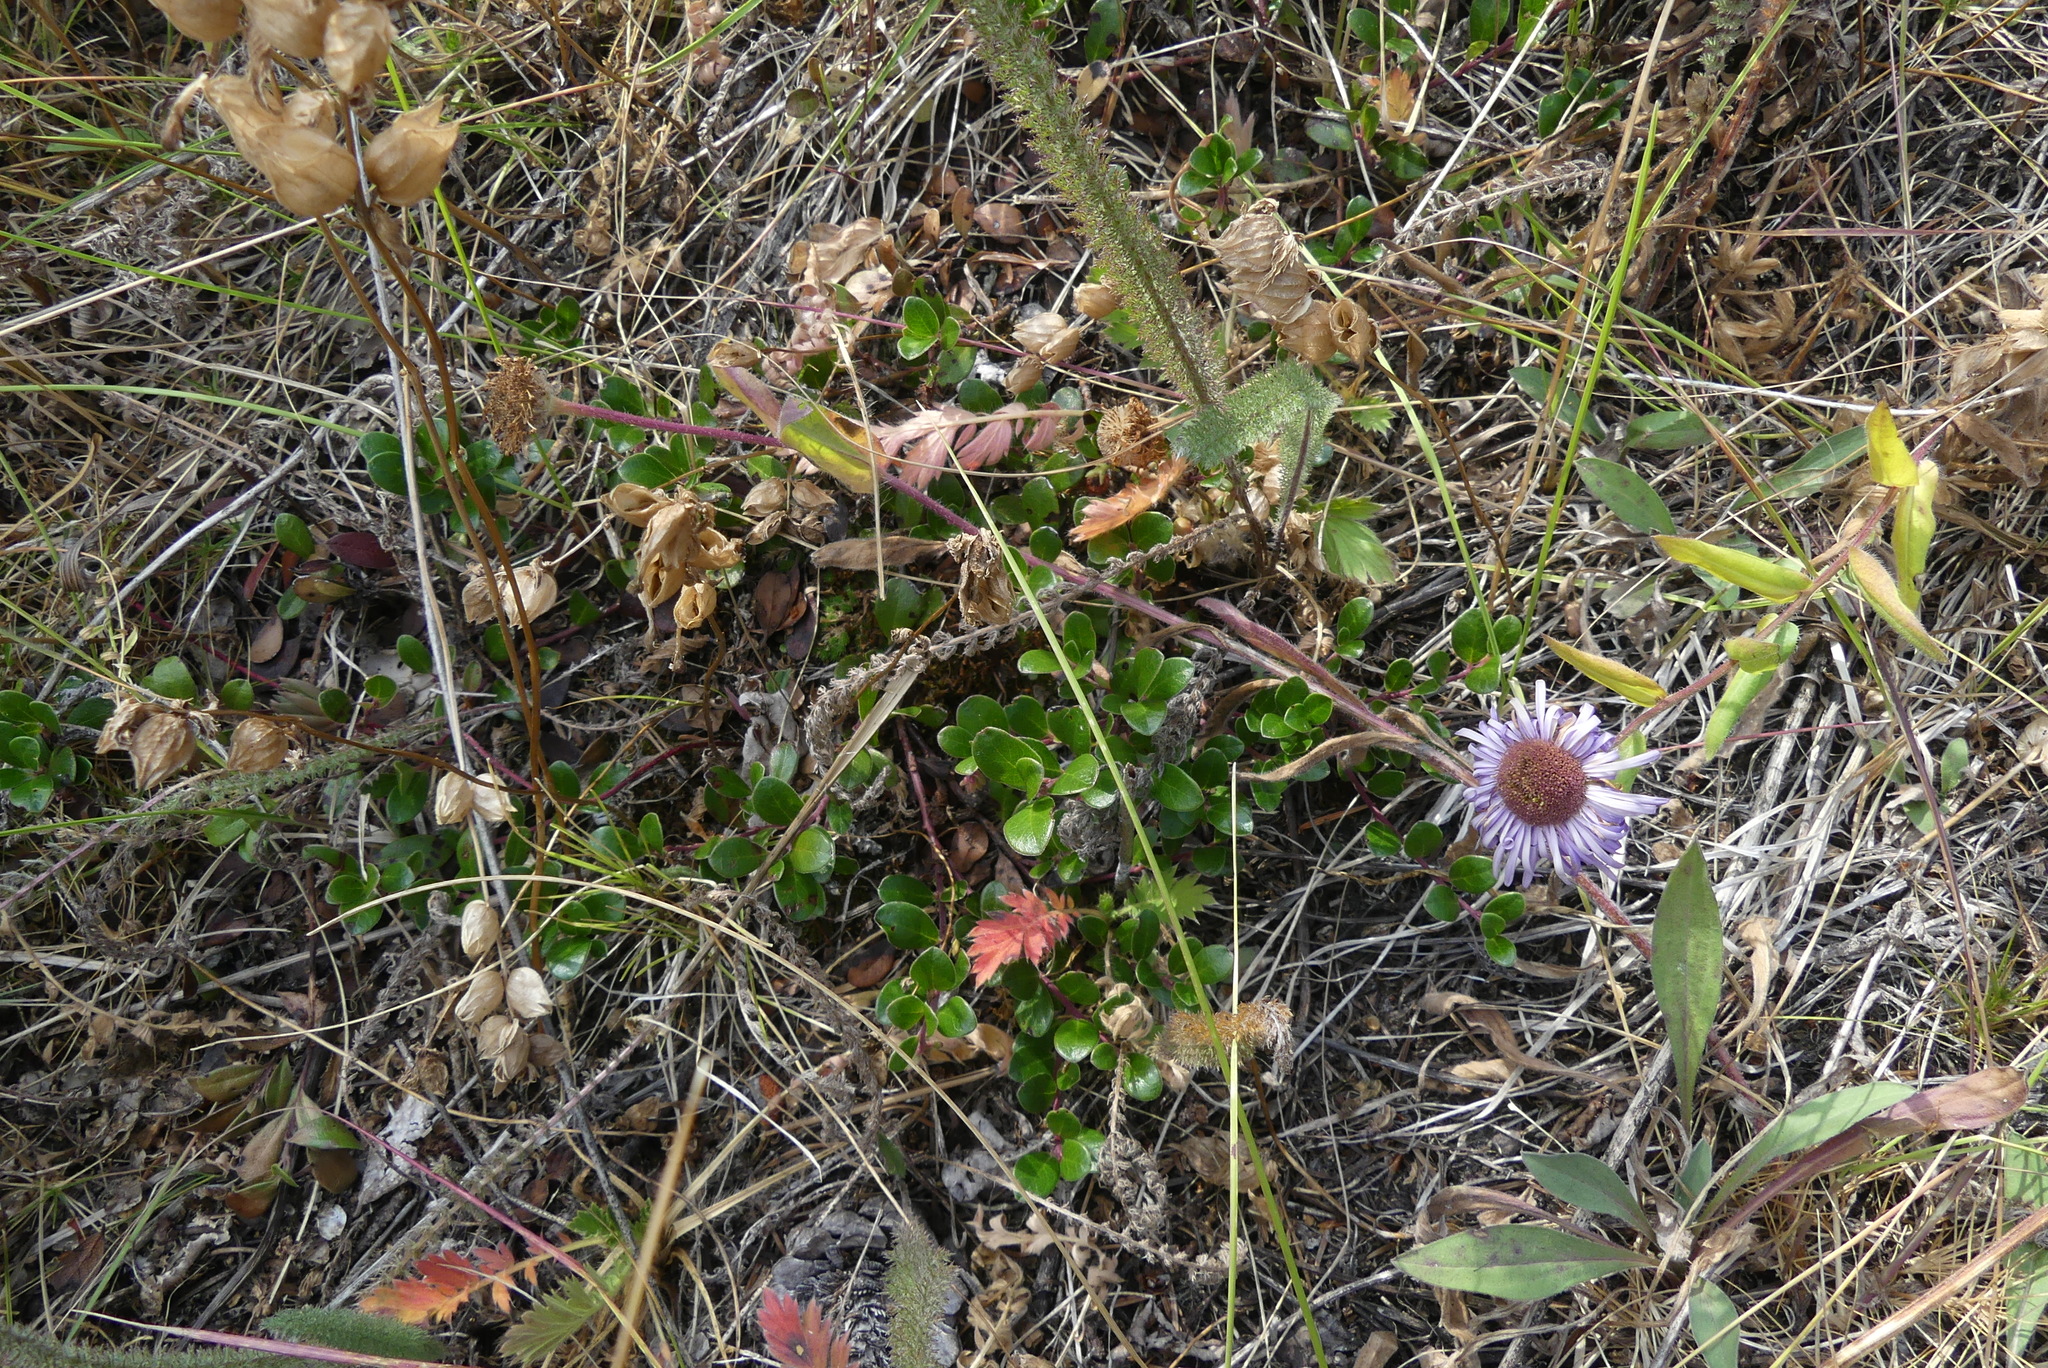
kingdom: Plantae
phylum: Tracheophyta
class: Magnoliopsida
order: Ericales
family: Ericaceae
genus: Arctostaphylos
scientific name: Arctostaphylos uva-ursi
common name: Bearberry
